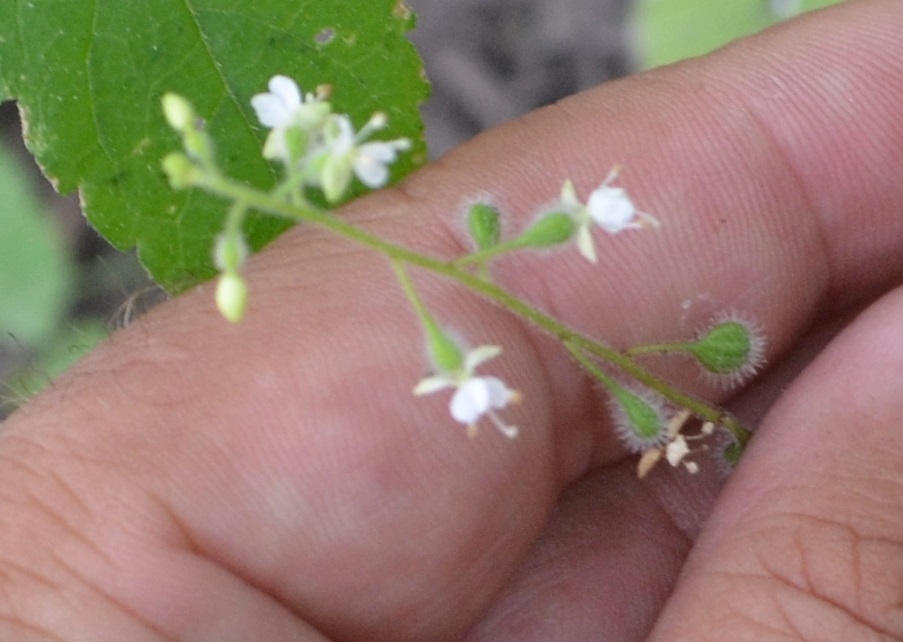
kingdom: Plantae
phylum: Tracheophyta
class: Magnoliopsida
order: Myrtales
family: Onagraceae
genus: Circaea
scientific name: Circaea canadensis
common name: Broad-leaved enchanter's nightshade
